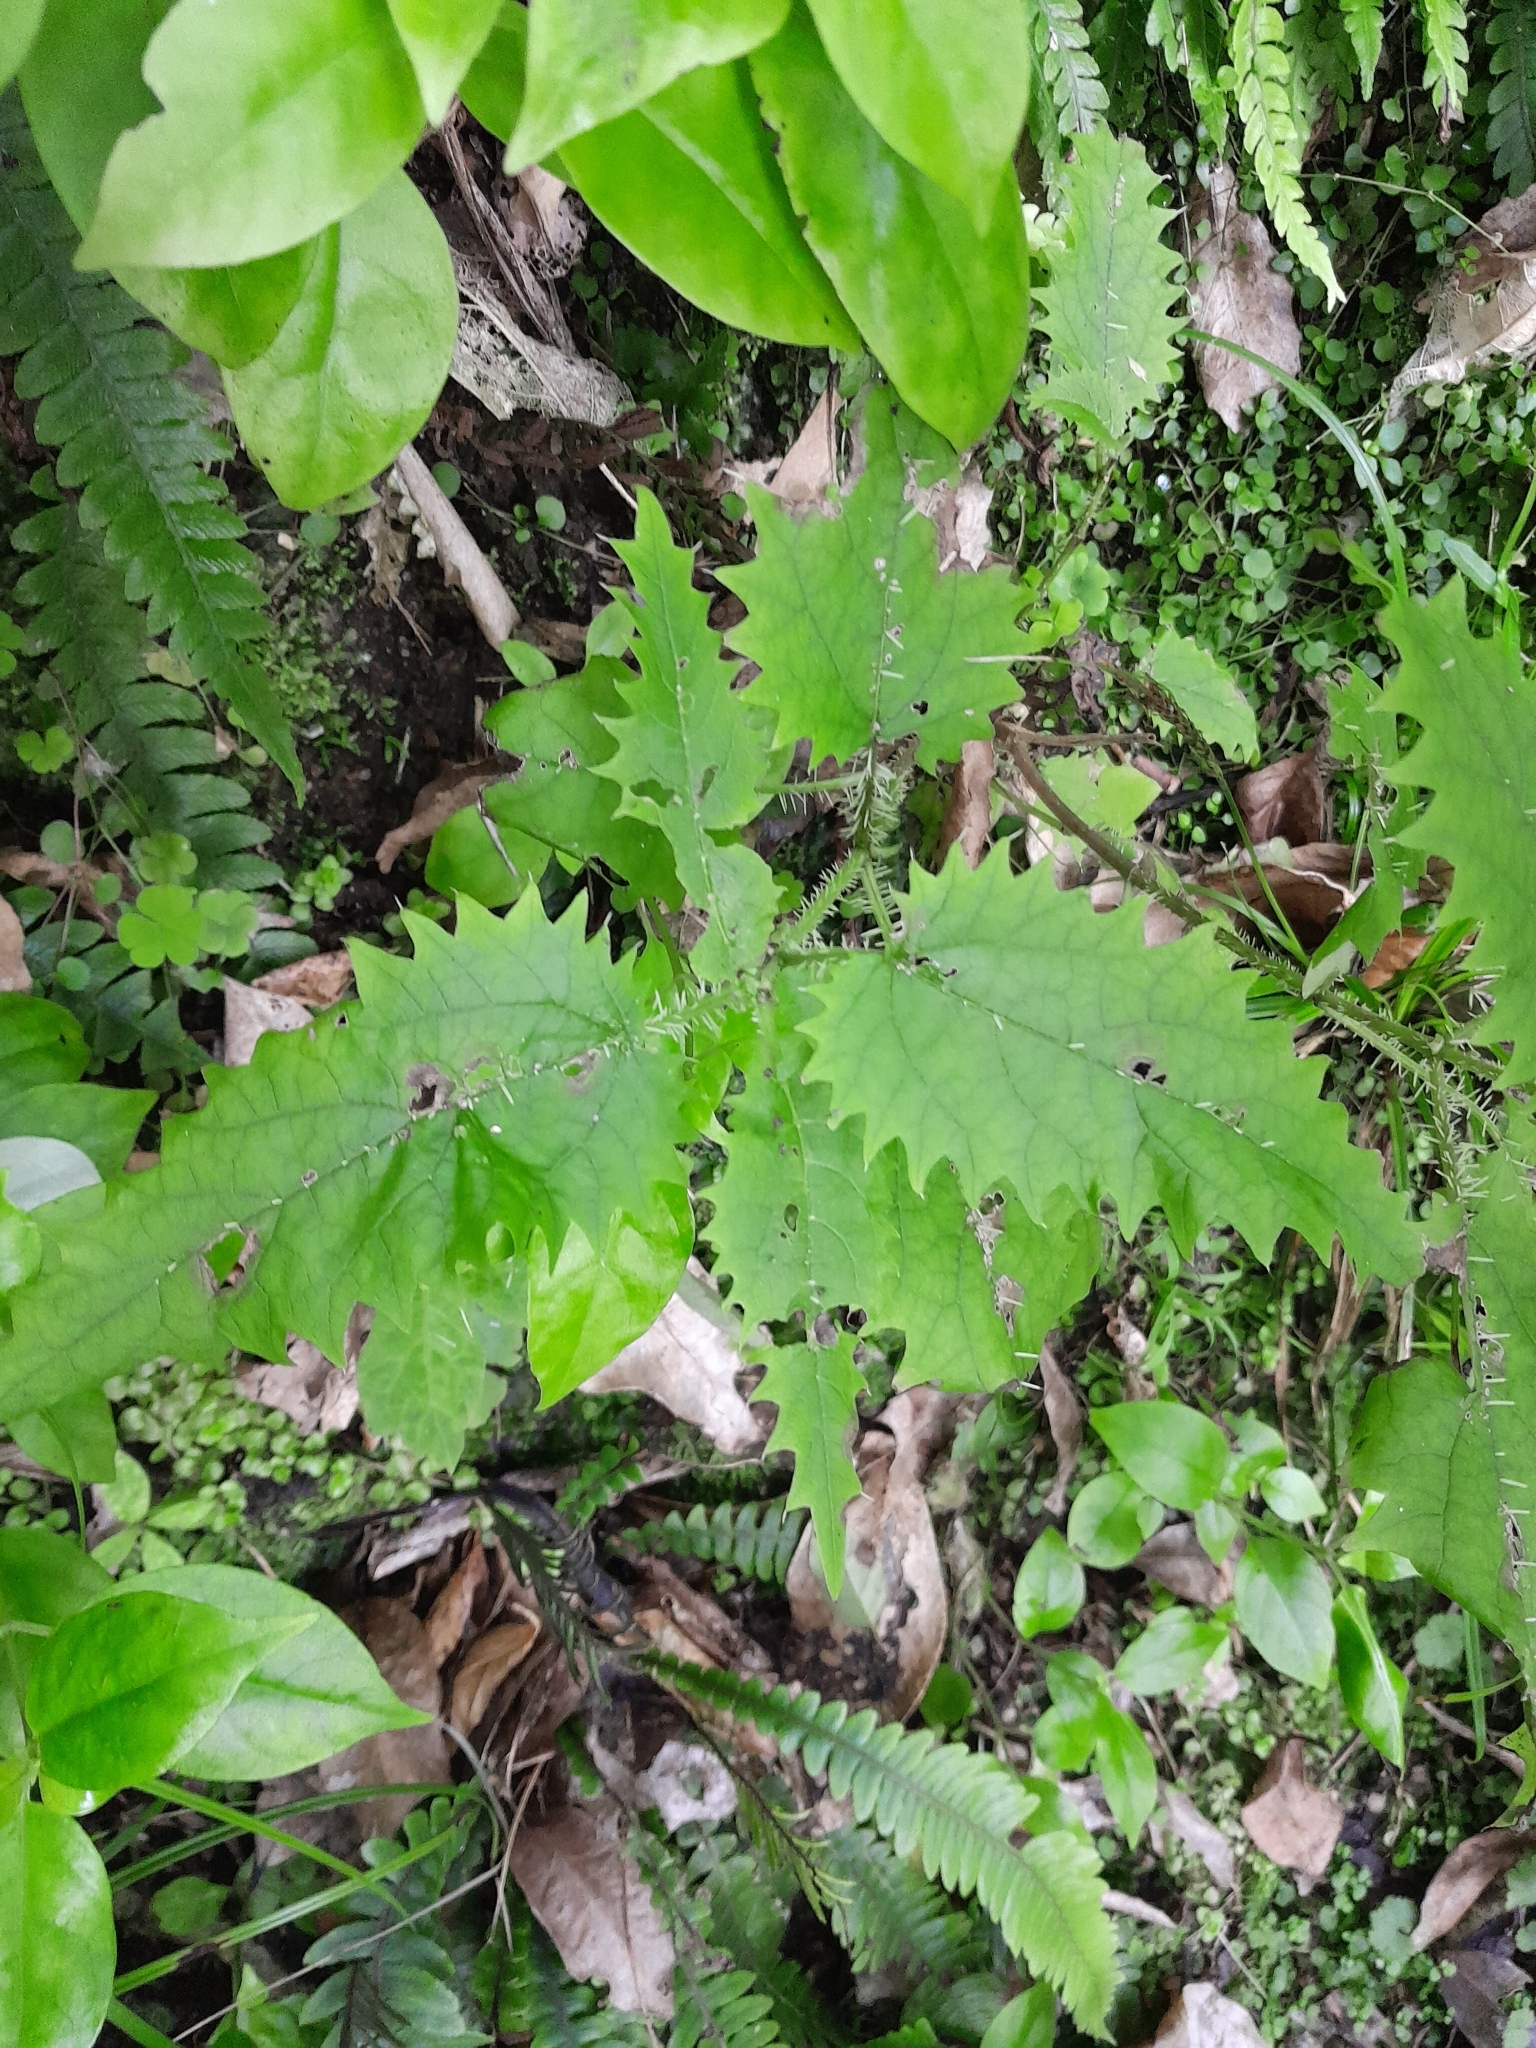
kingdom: Plantae
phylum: Tracheophyta
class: Magnoliopsida
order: Rosales
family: Urticaceae
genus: Urtica
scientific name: Urtica ferox
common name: Tree nettle
